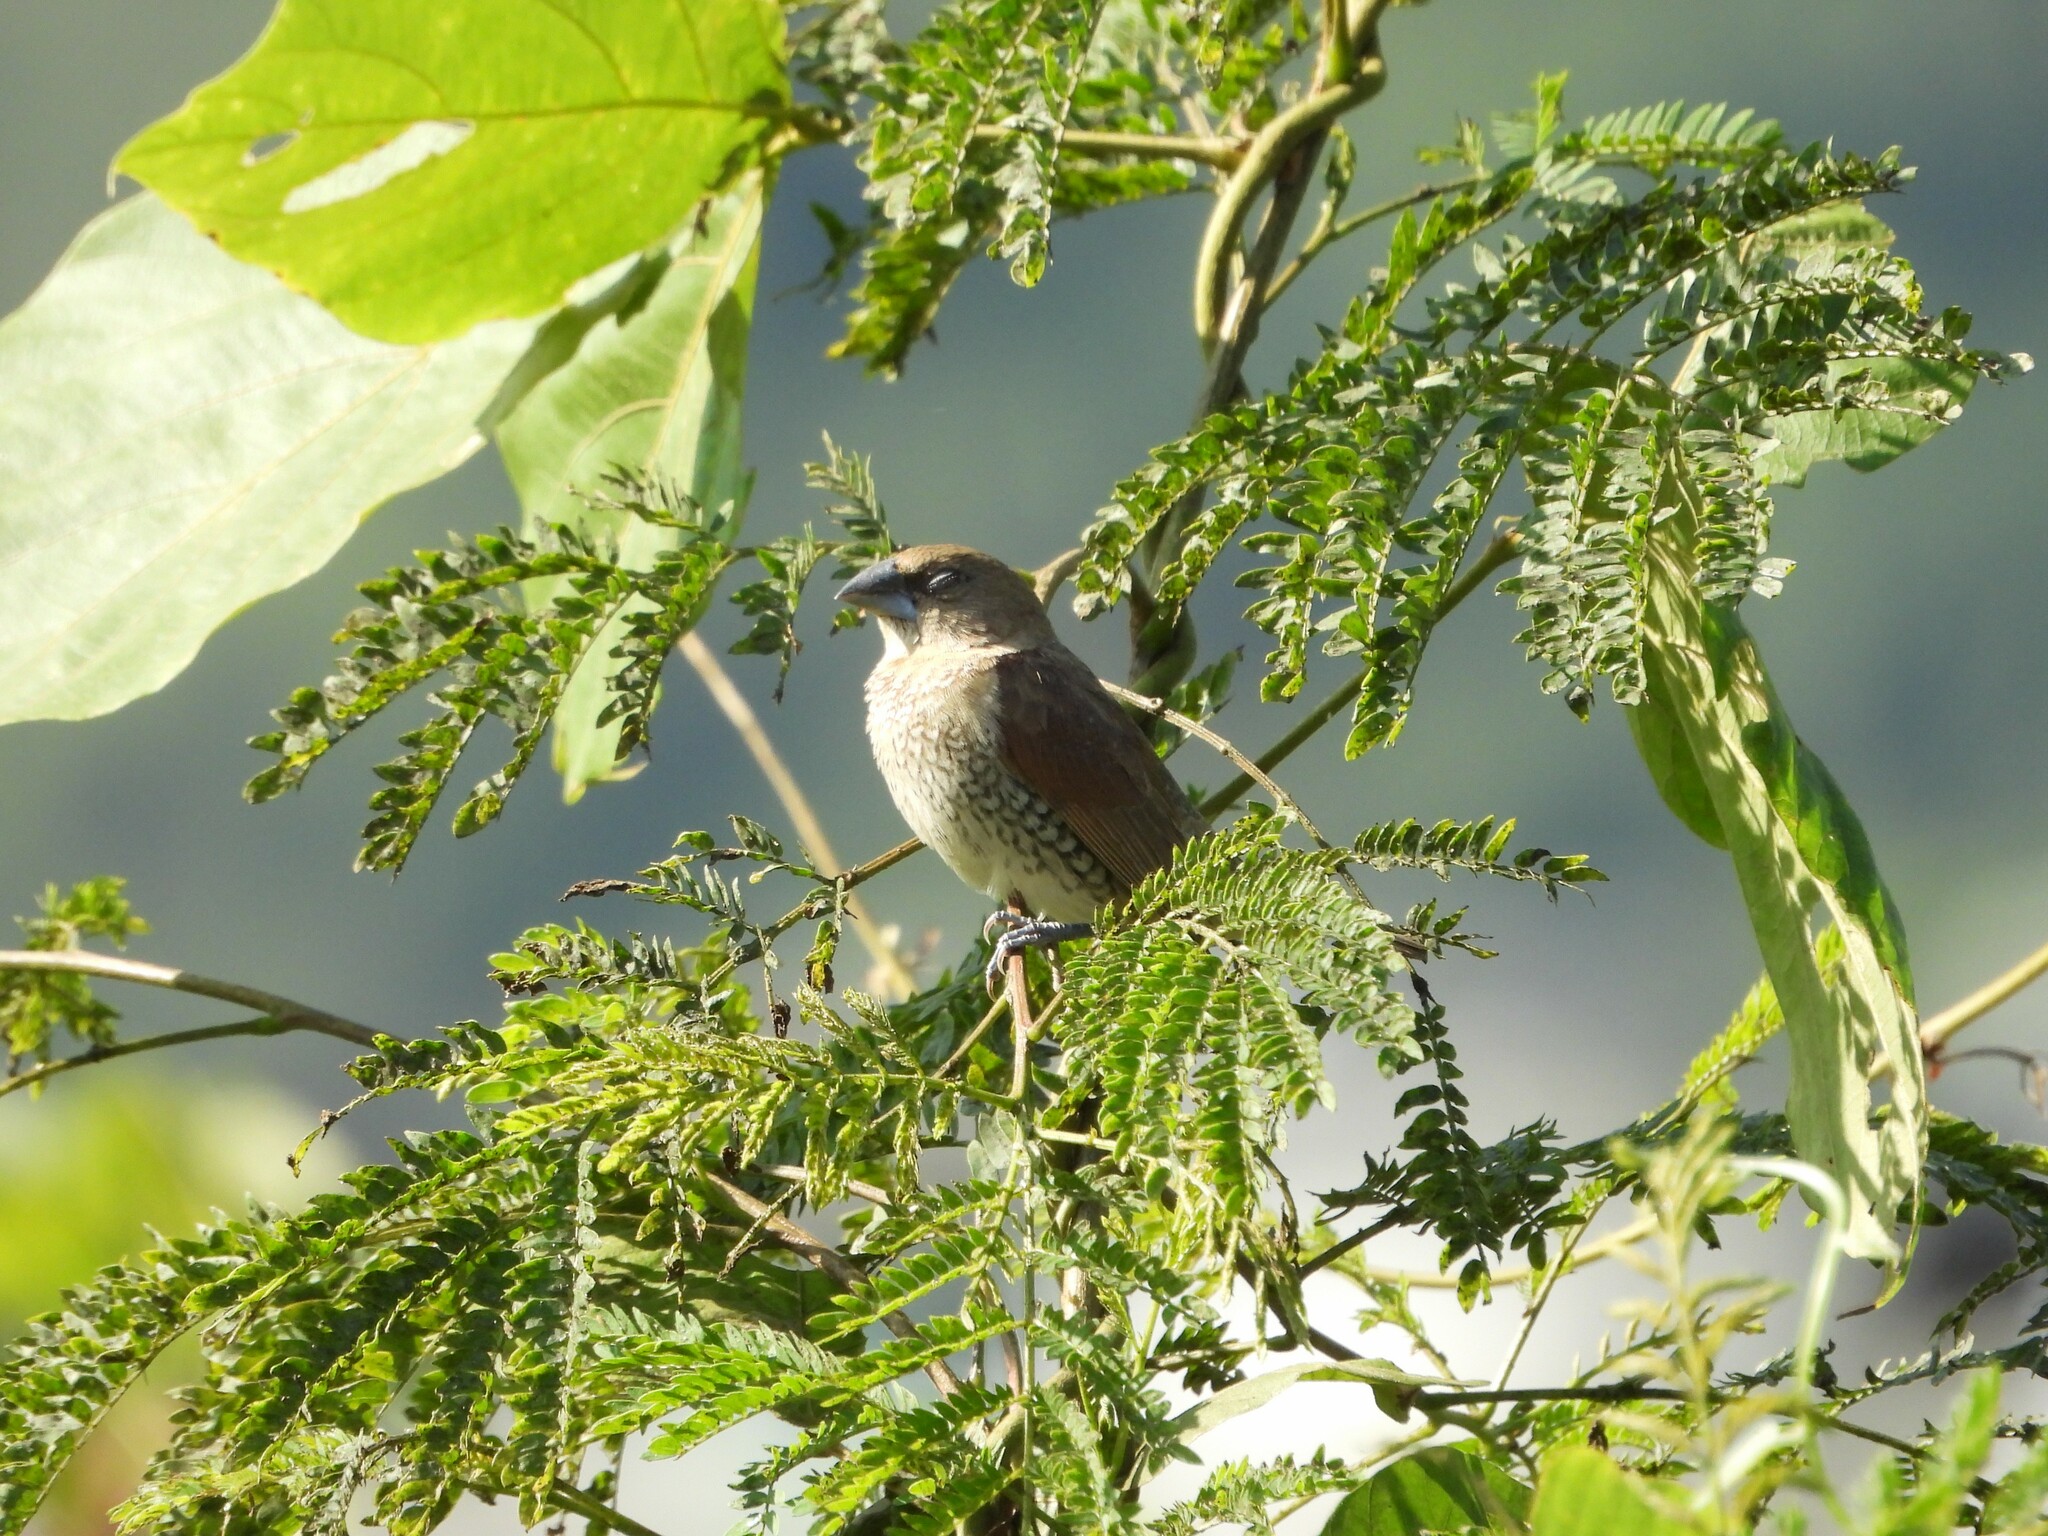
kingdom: Animalia
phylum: Chordata
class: Aves
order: Passeriformes
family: Estrildidae
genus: Lonchura
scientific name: Lonchura punctulata
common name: Scaly-breasted munia
